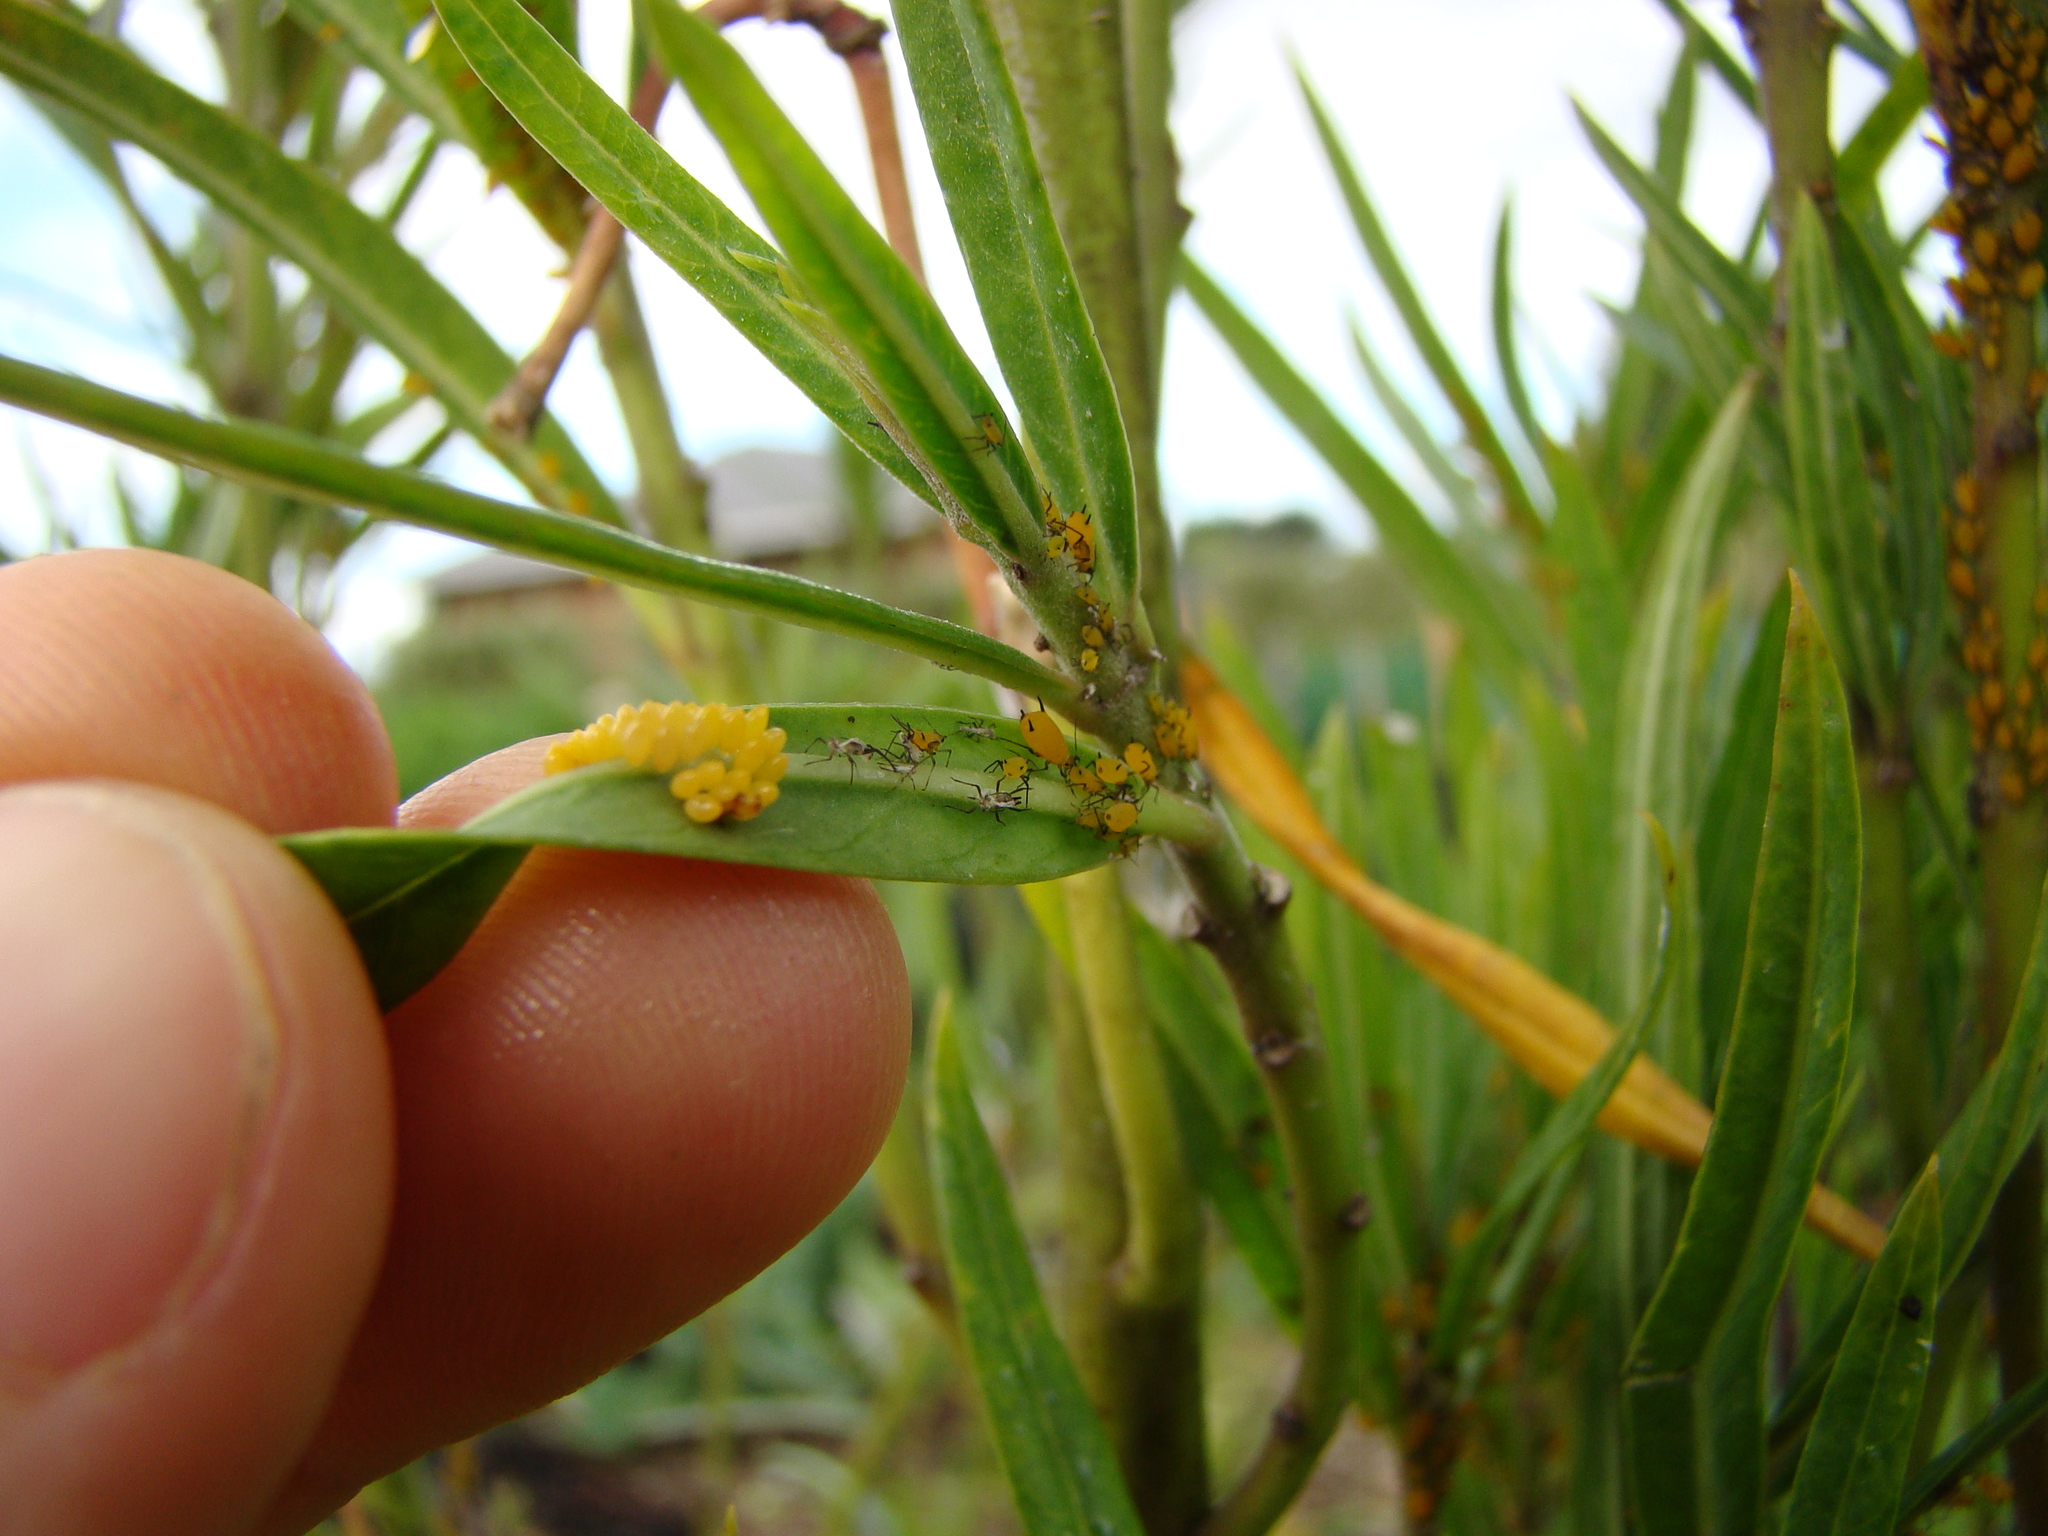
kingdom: Animalia
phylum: Arthropoda
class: Insecta
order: Hemiptera
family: Aphididae
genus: Aphis
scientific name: Aphis nerii
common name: Oleander aphid
